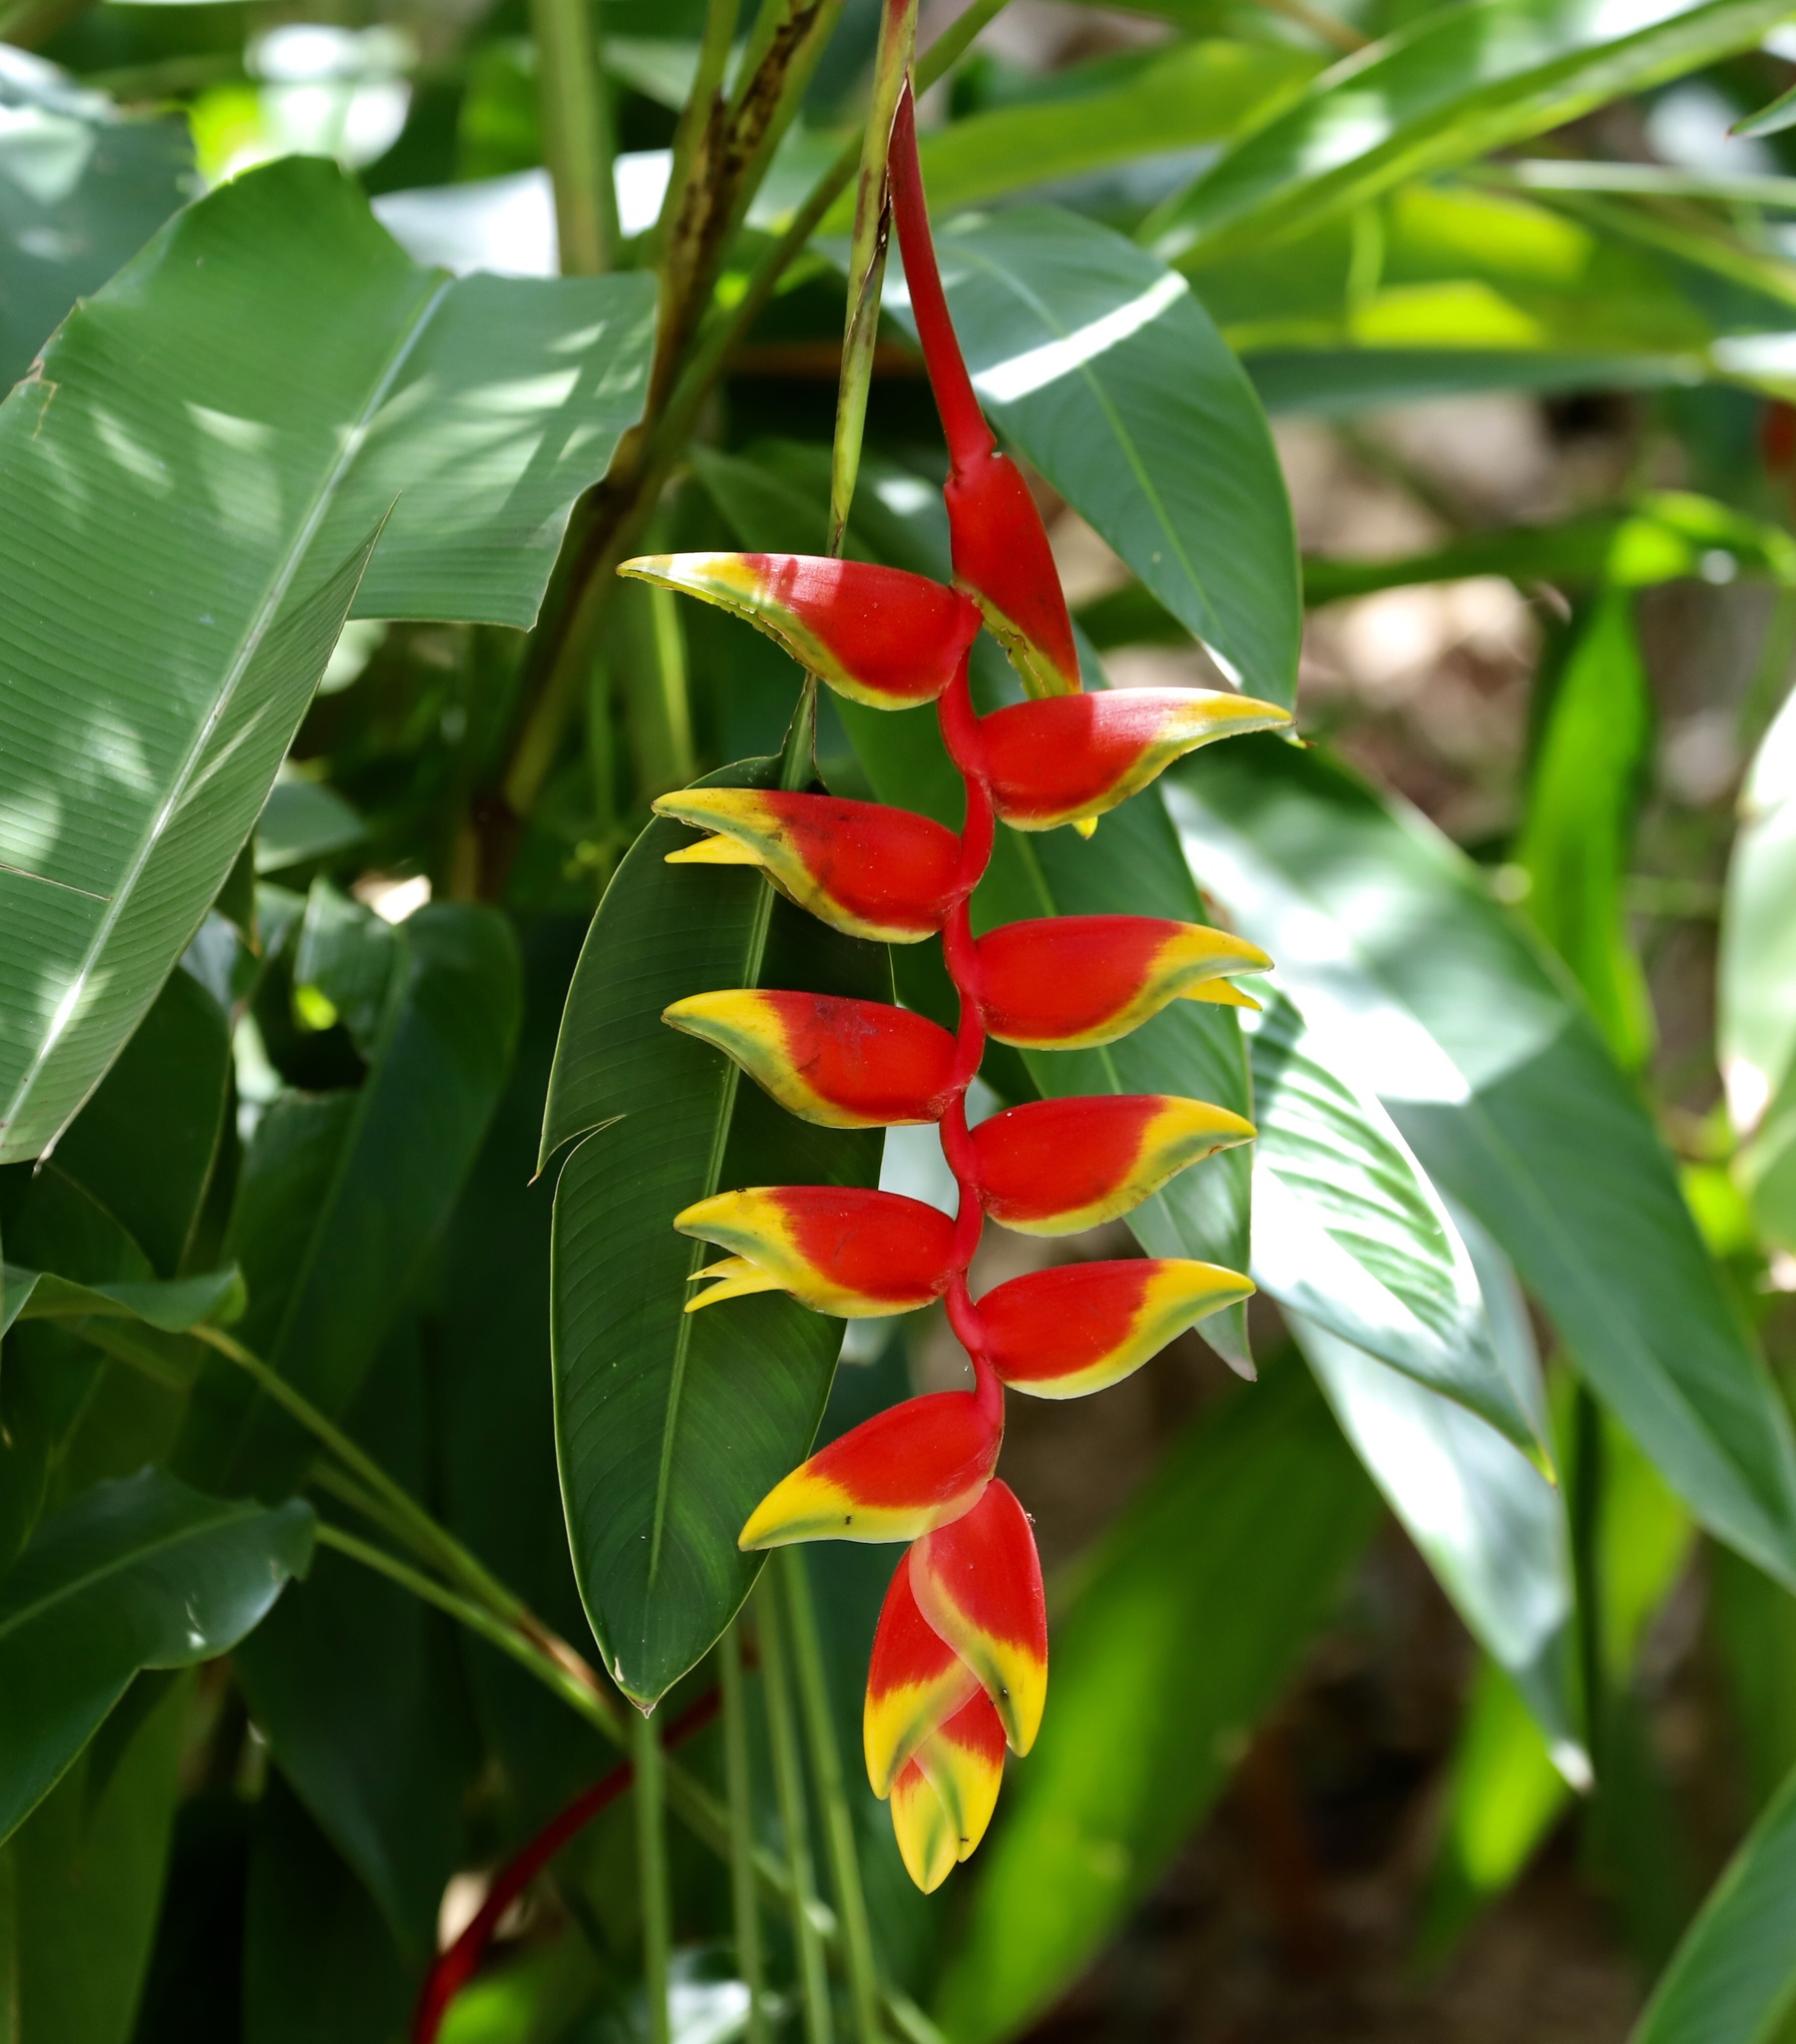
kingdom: Plantae
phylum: Tracheophyta
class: Liliopsida
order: Zingiberales
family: Heliconiaceae
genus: Heliconia
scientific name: Heliconia rostrata
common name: False bird of paradise
